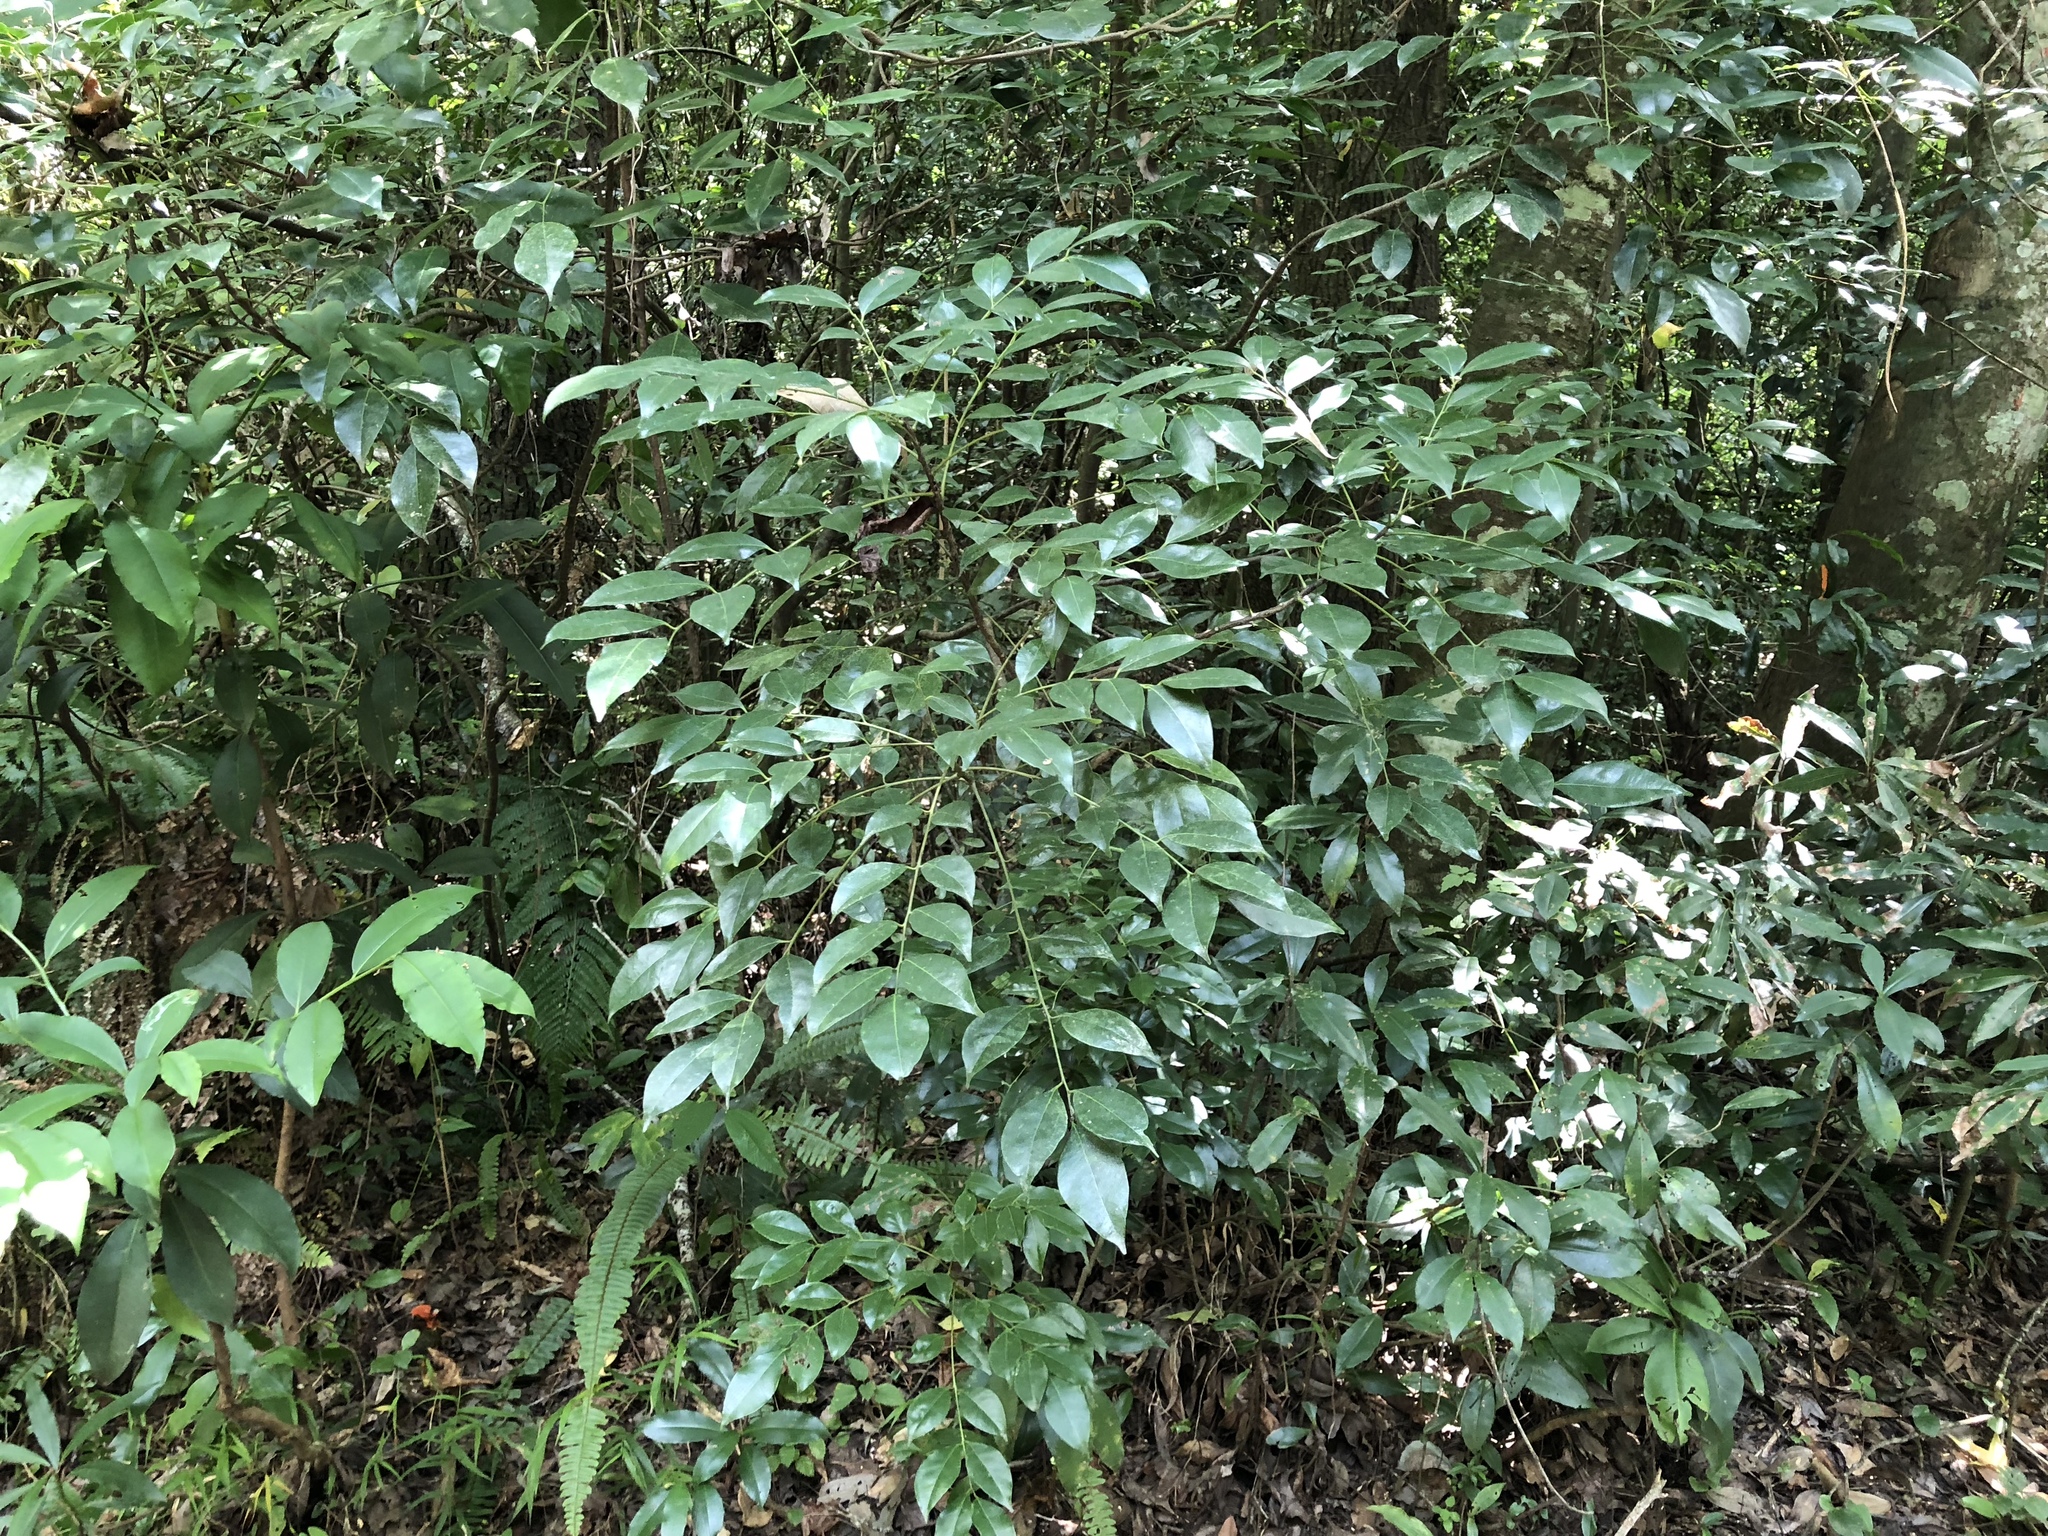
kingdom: Plantae
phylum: Tracheophyta
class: Magnoliopsida
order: Sapindales
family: Rutaceae
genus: Murraya
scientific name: Murraya euchrestifolia
